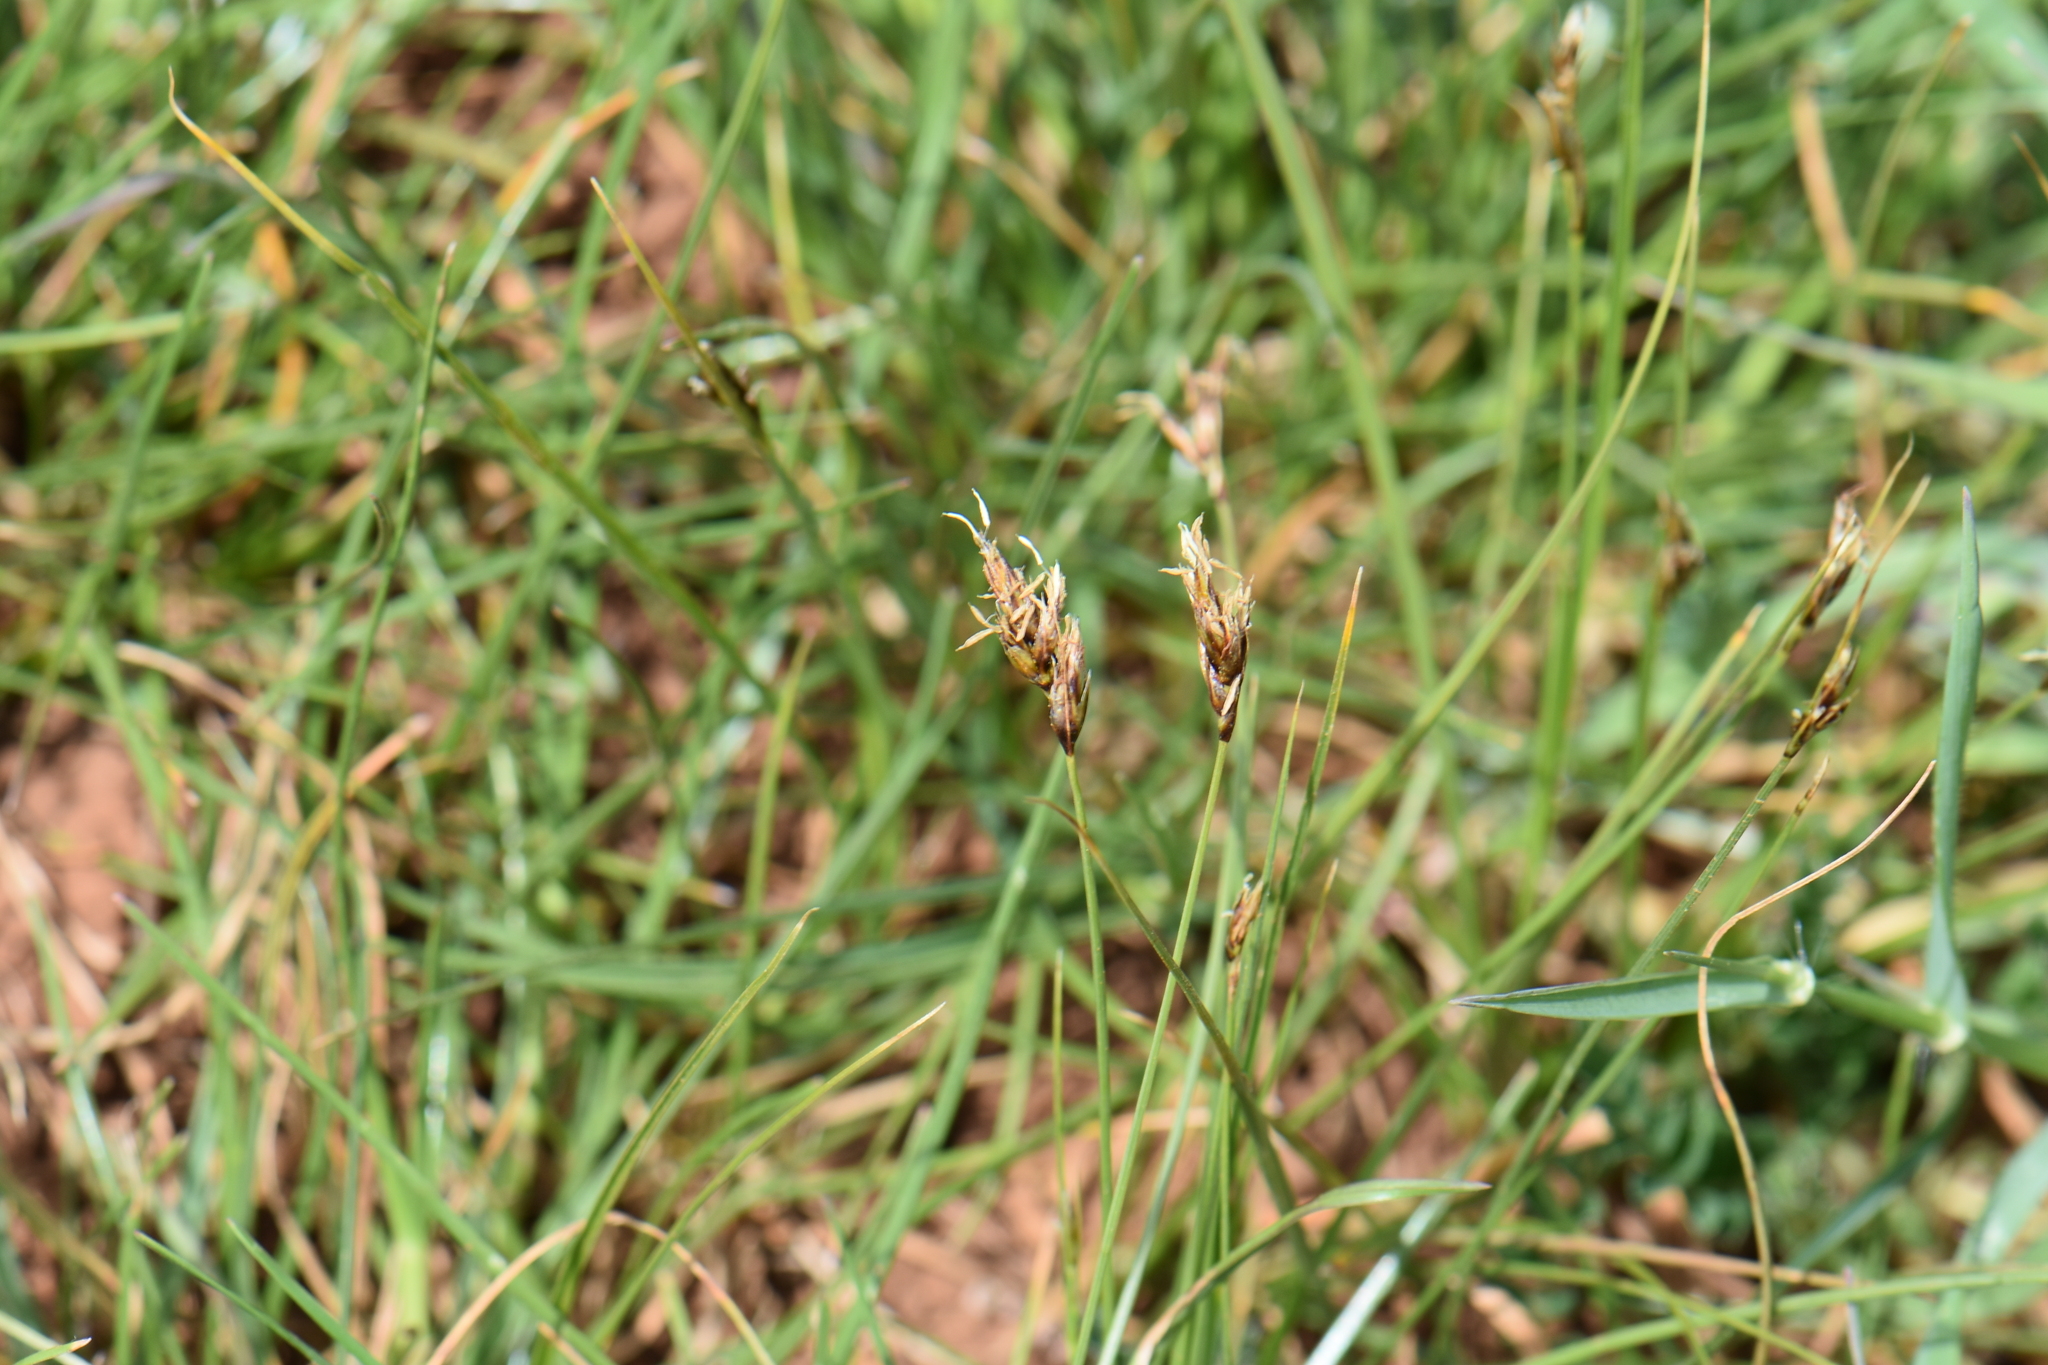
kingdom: Plantae
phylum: Tracheophyta
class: Liliopsida
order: Poales
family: Cyperaceae
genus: Carex
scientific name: Carex divisa
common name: Divided sedge
